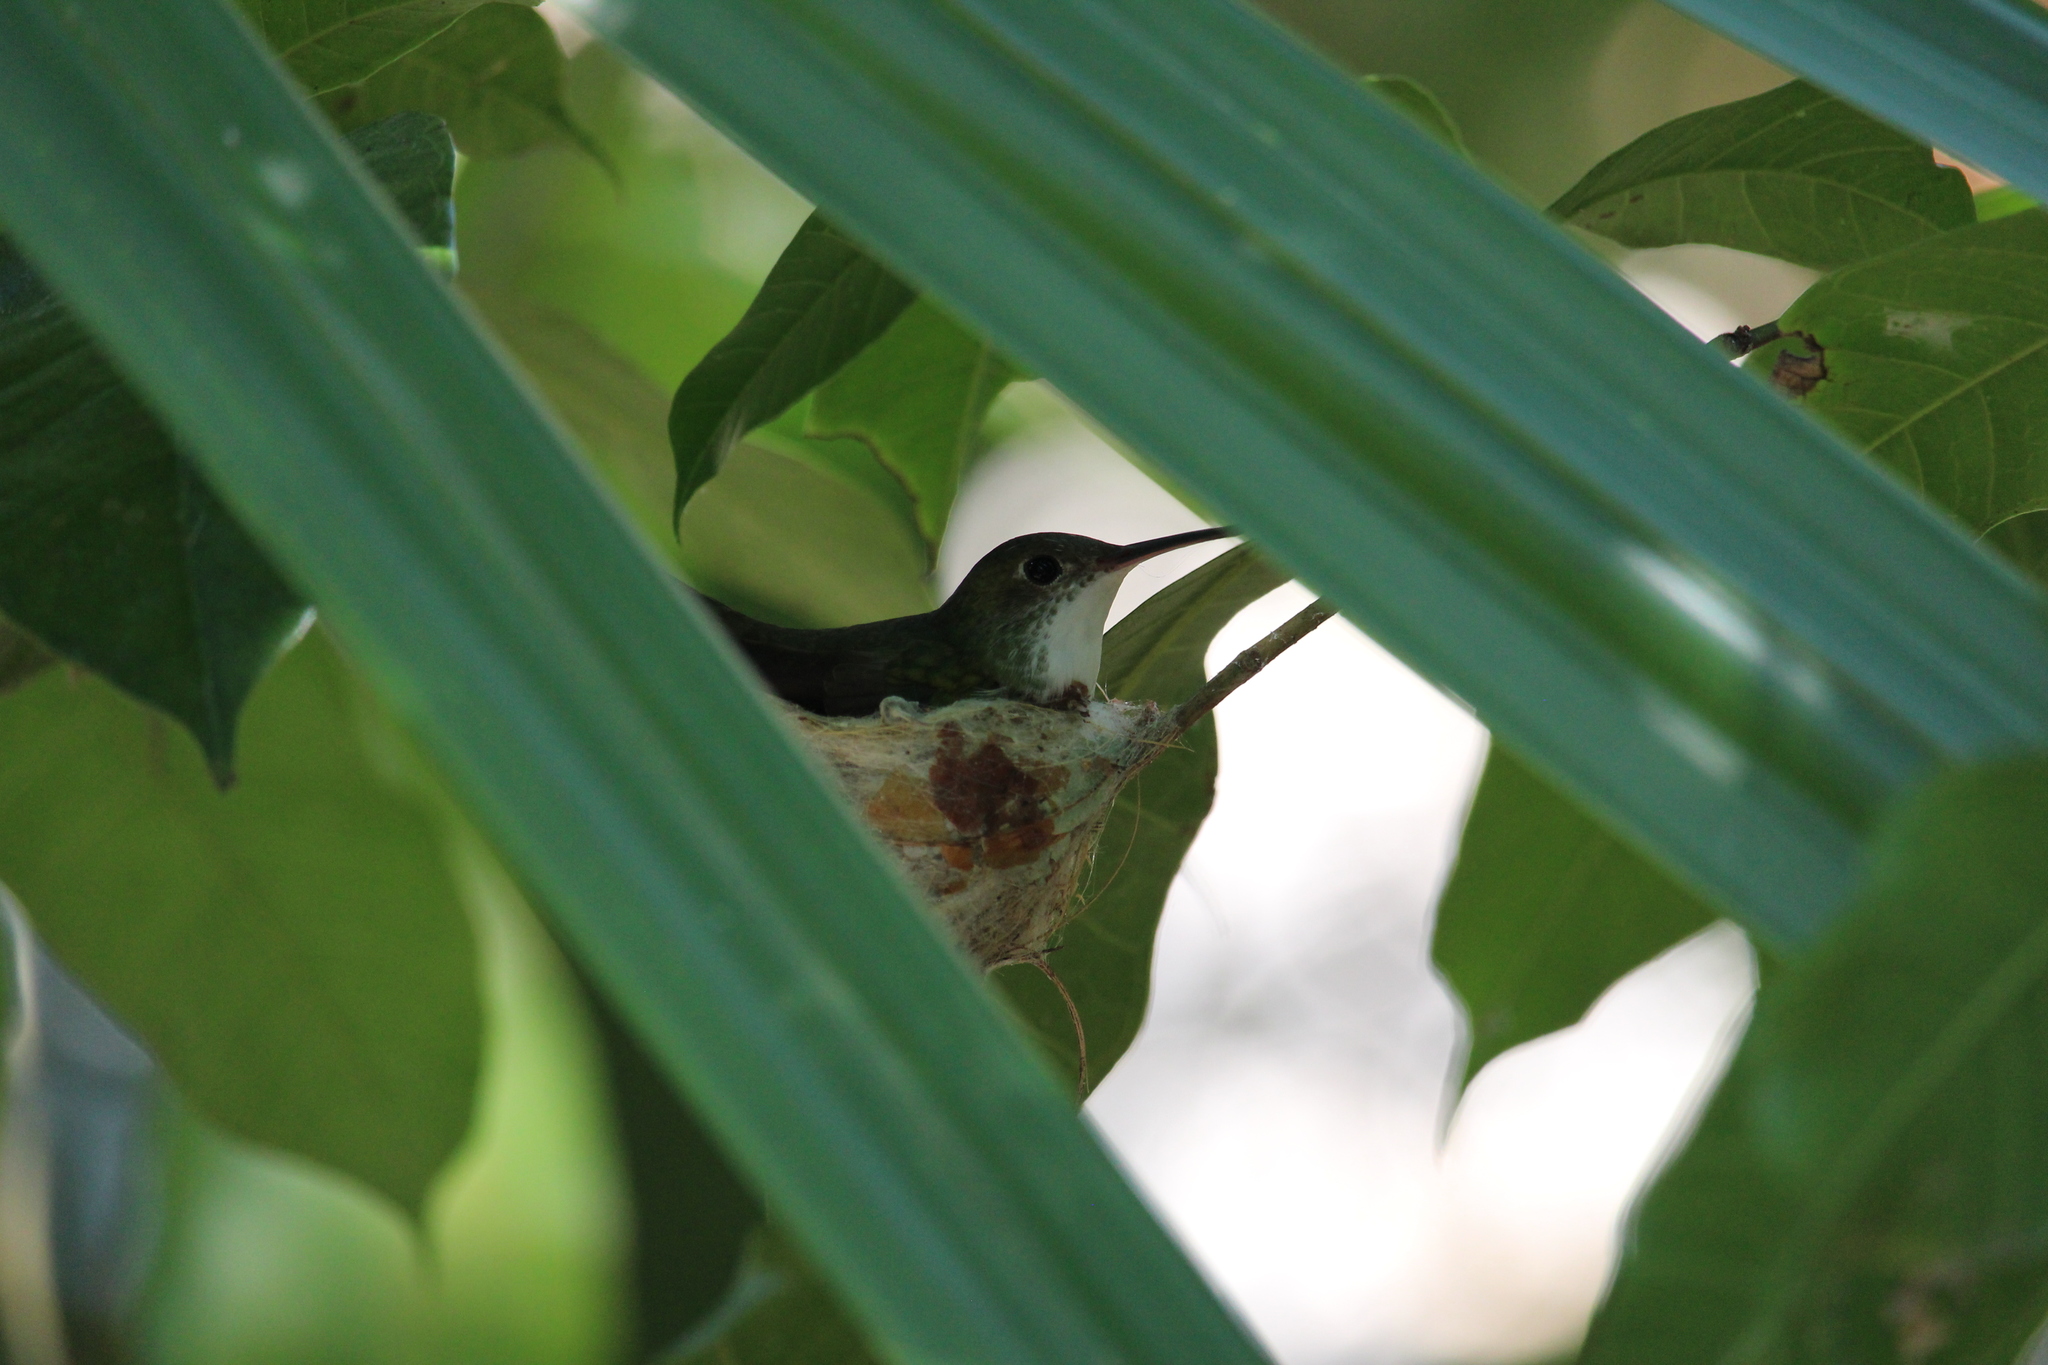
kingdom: Animalia
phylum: Chordata
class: Aves
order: Apodiformes
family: Trochilidae
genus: Chlorestes
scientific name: Chlorestes candida
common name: White-bellied emerald
